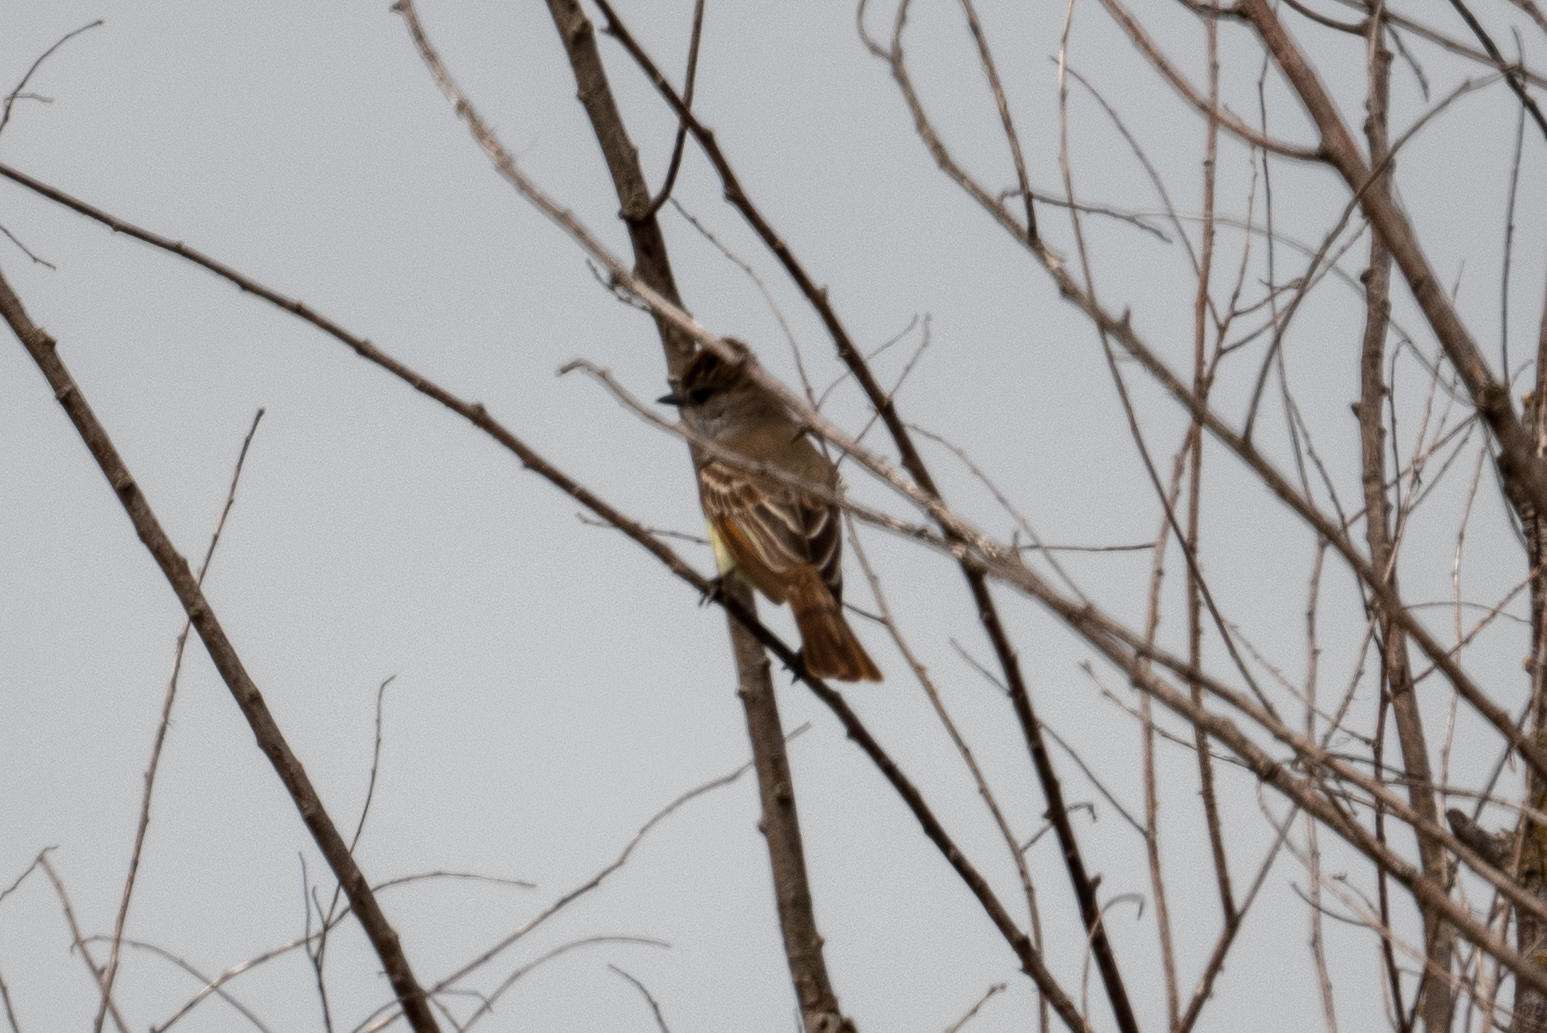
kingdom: Animalia
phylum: Chordata
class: Aves
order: Passeriformes
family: Tyrannidae
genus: Myiarchus
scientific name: Myiarchus cinerascens
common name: Ash-throated flycatcher
